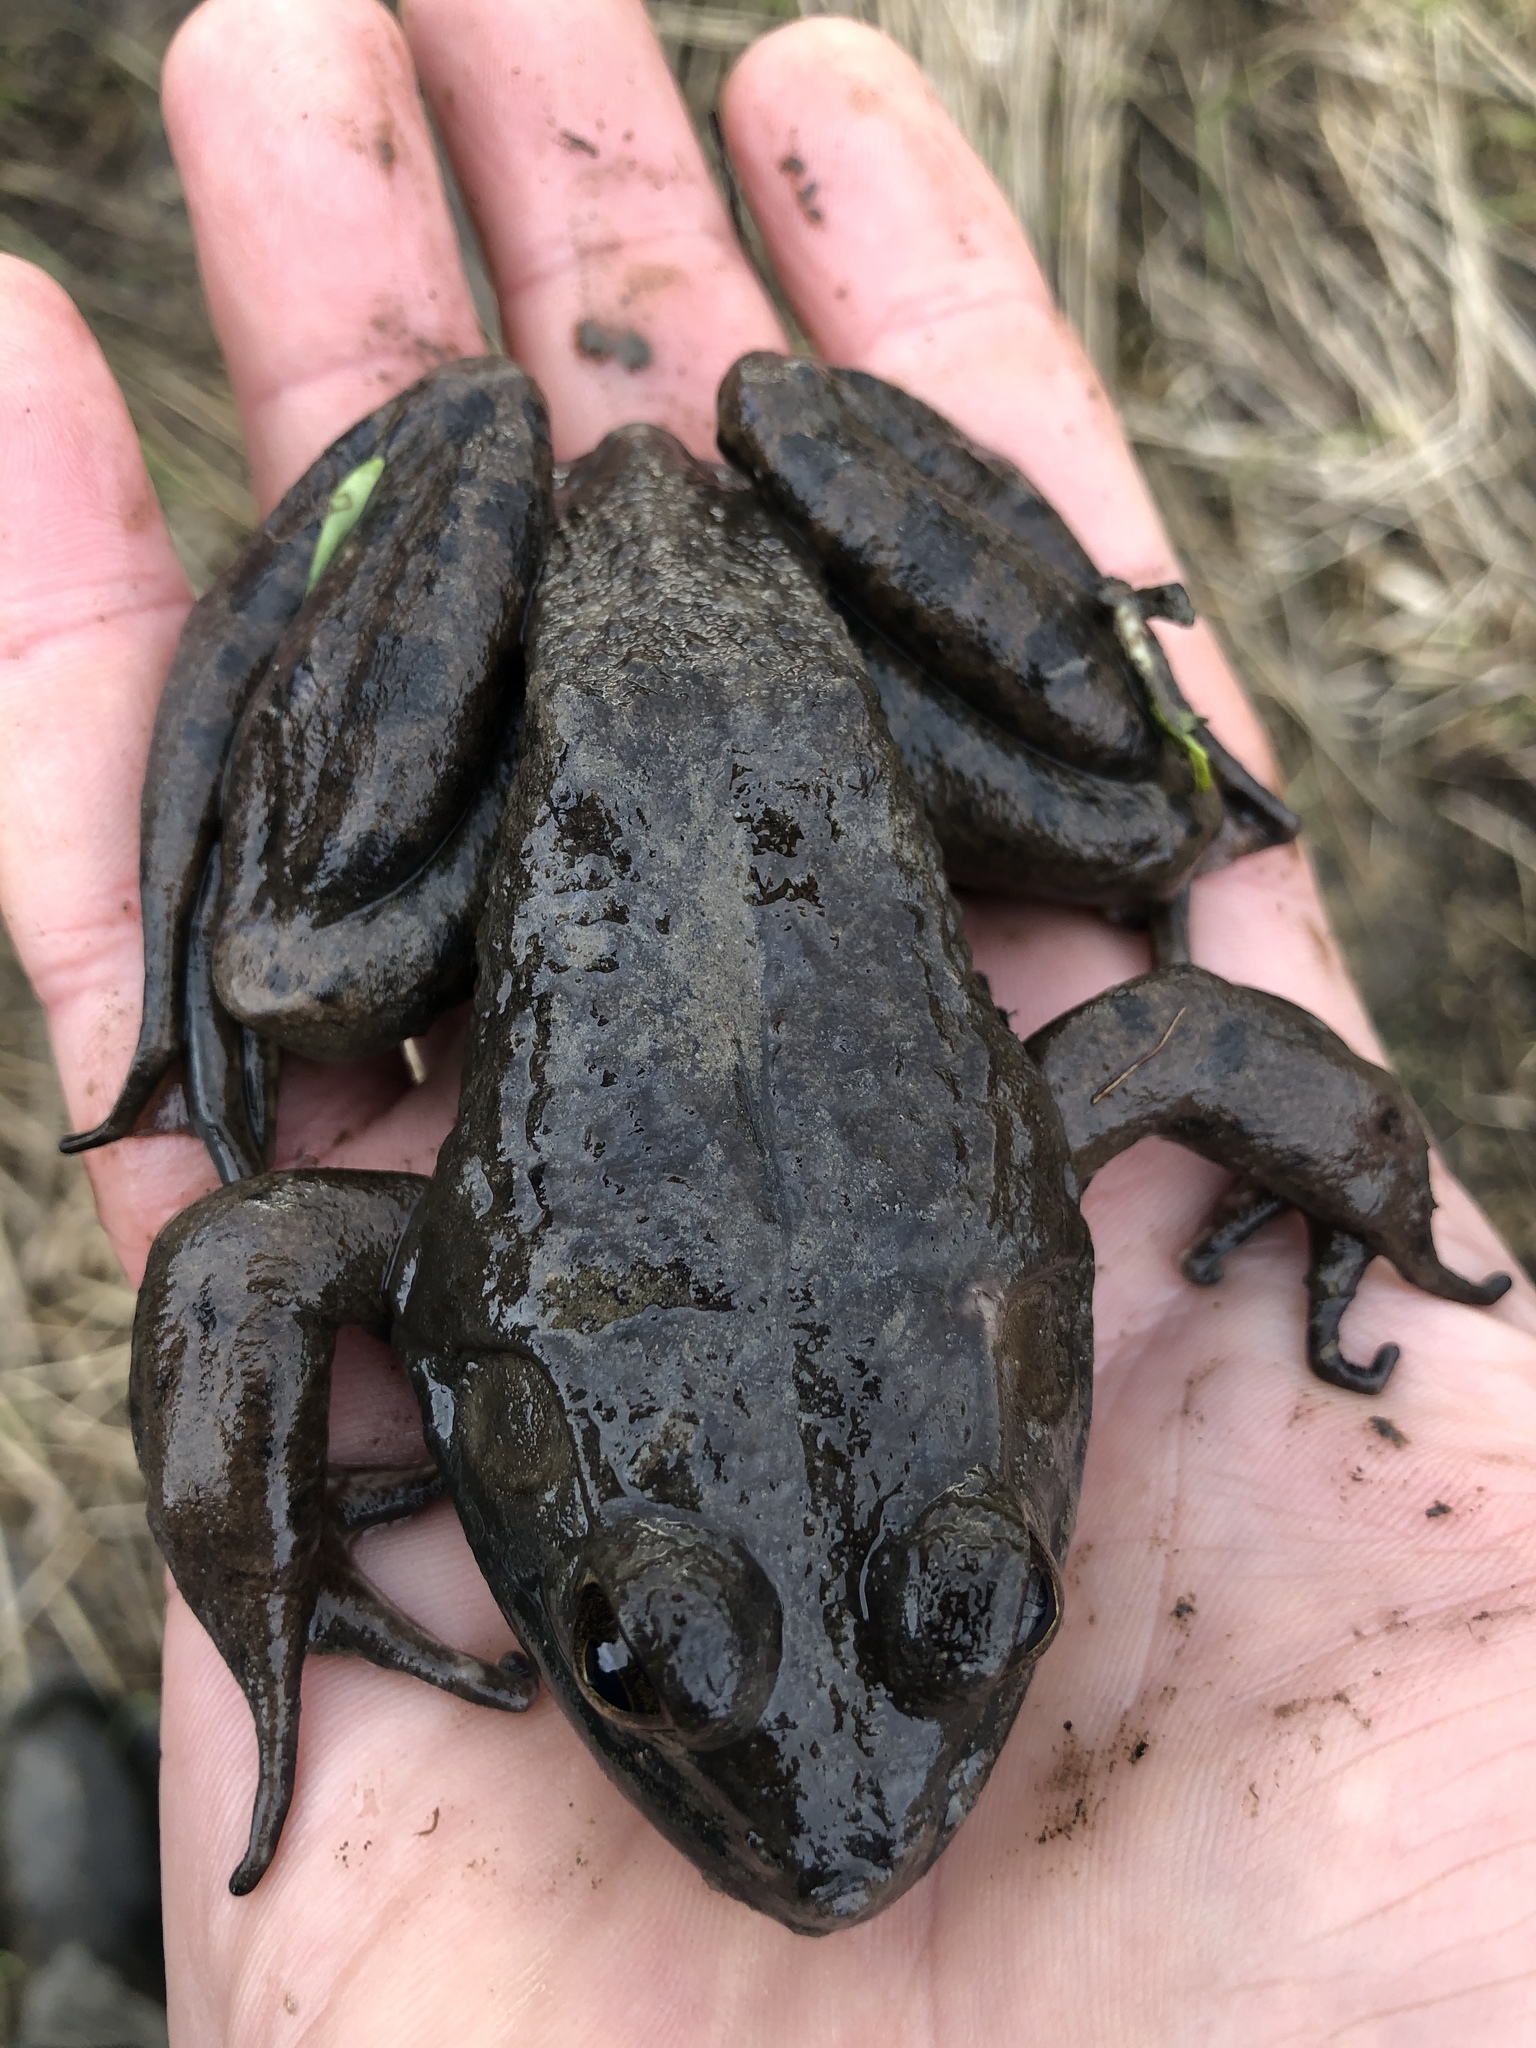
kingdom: Animalia
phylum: Chordata
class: Amphibia
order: Anura
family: Ranidae
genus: Lithobates
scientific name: Lithobates catesbeianus
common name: American bullfrog
